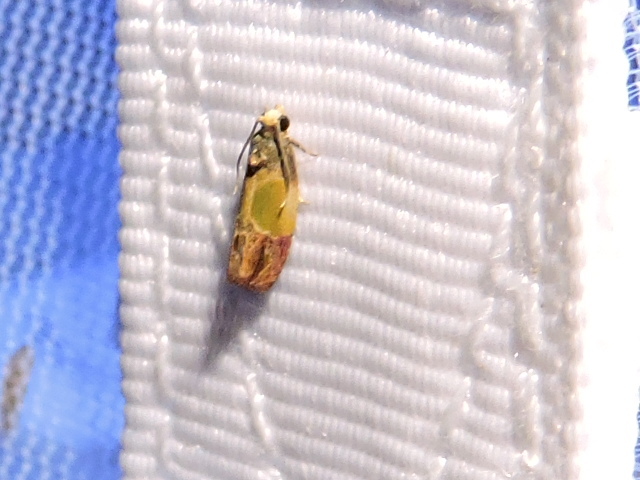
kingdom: Animalia
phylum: Arthropoda
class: Insecta
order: Lepidoptera
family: Tortricidae
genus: Eumarozia
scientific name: Eumarozia malachitana
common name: Sculptured moth
